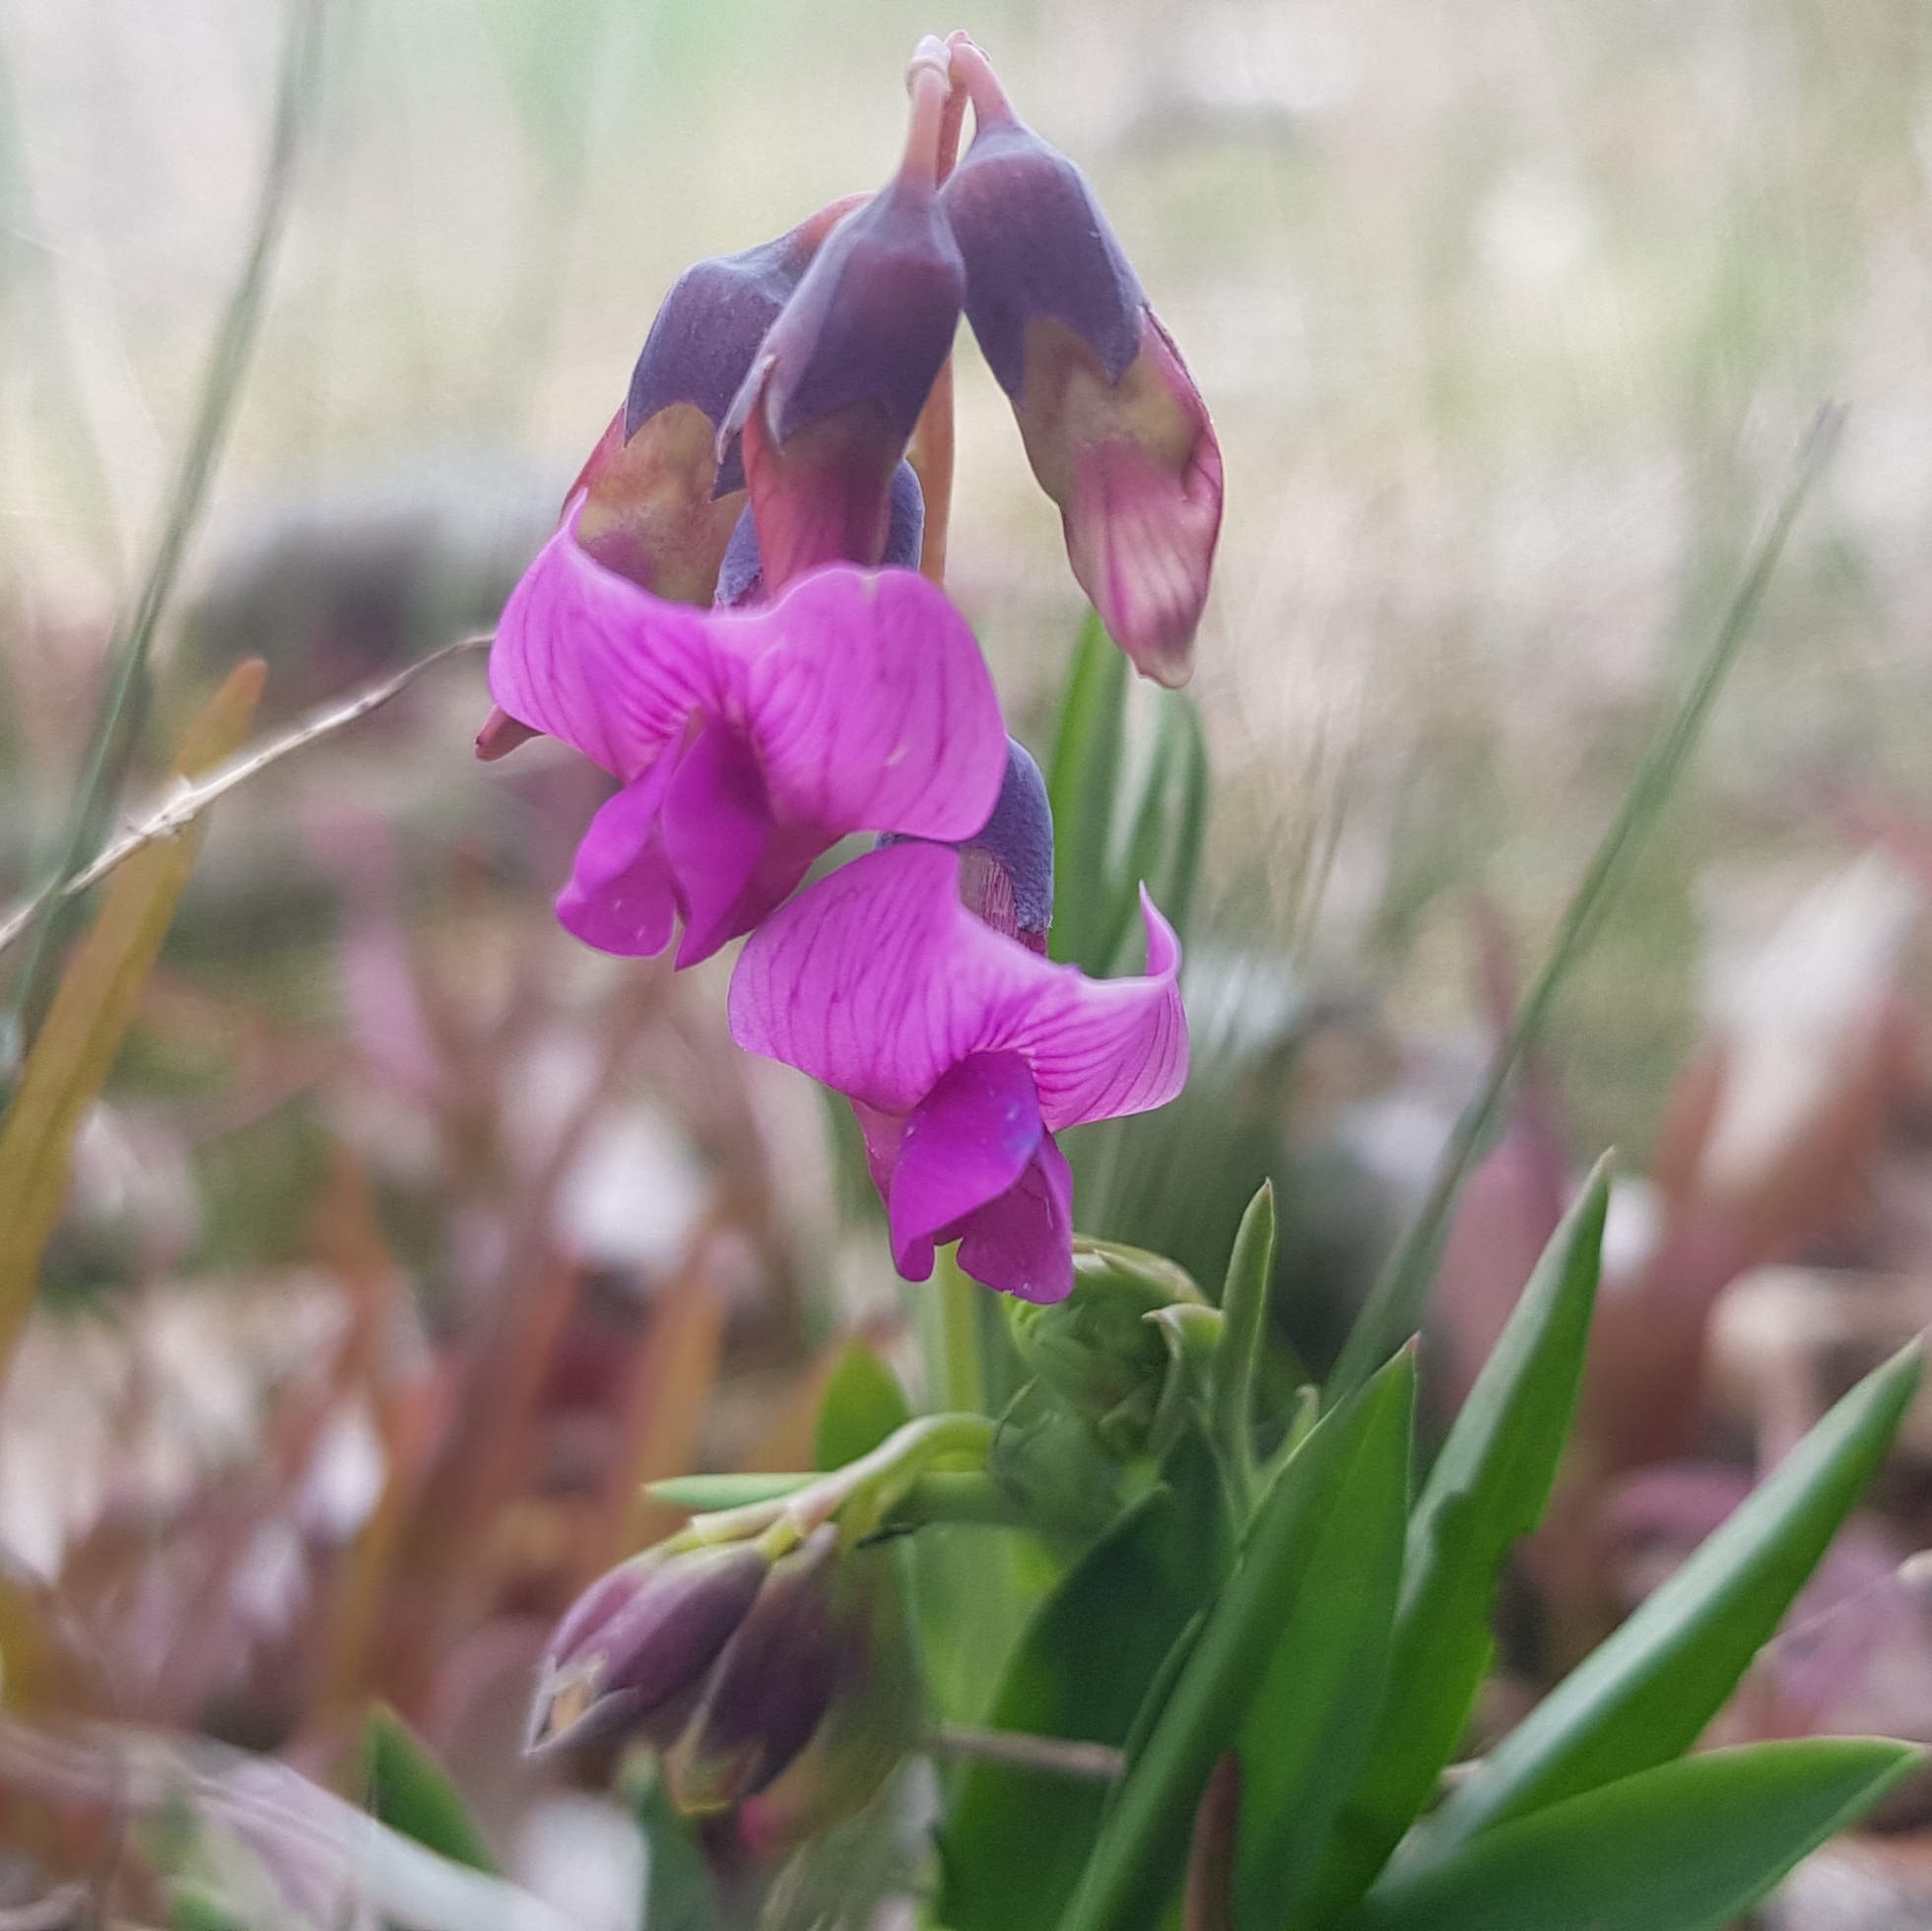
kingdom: Plantae
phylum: Tracheophyta
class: Magnoliopsida
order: Fabales
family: Fabaceae
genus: Lathyrus
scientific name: Lathyrus linifolius
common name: Bitter-vetch
